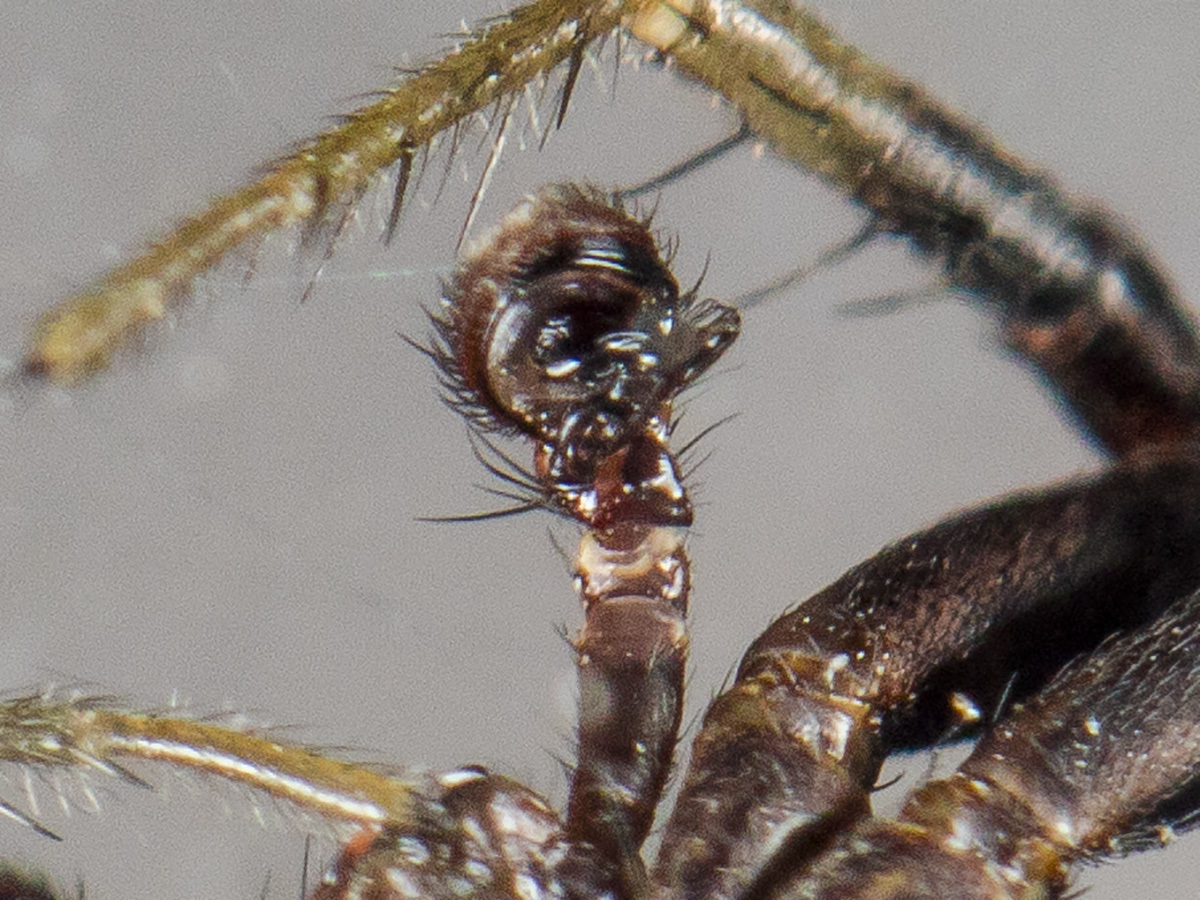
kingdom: Animalia
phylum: Arthropoda
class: Arachnida
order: Araneae
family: Thomisidae
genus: Xysticus
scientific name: Xysticus pseudocristatus
